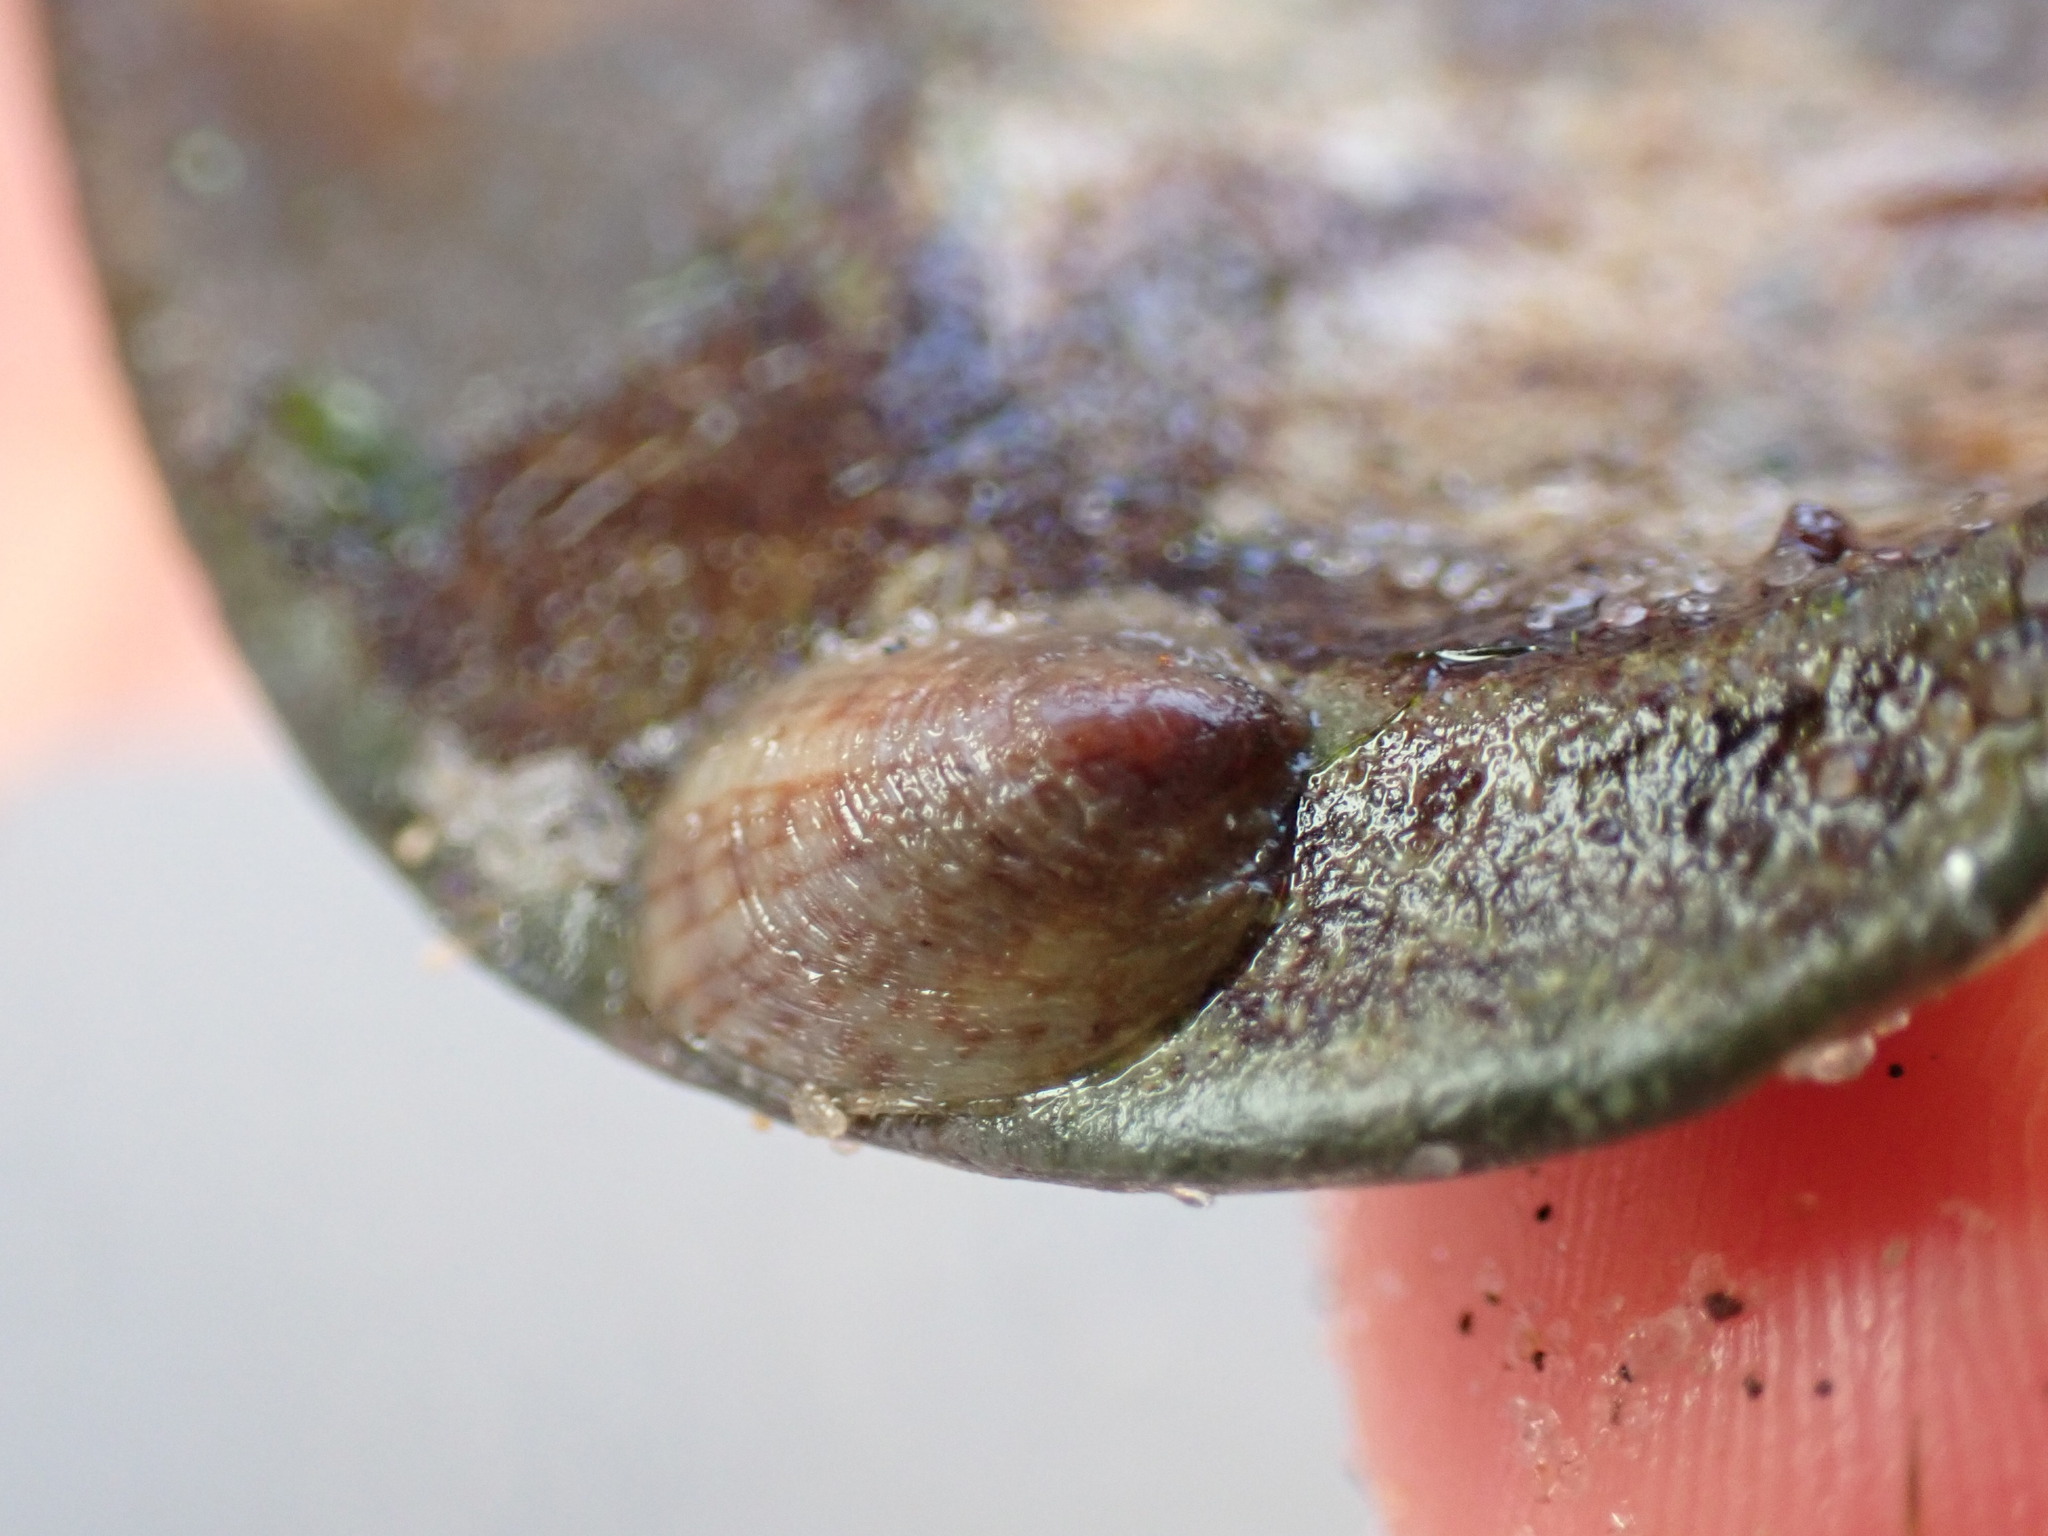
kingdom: Animalia
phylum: Mollusca
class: Gastropoda
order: Littorinimorpha
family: Calyptraeidae
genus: Crepidula
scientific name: Crepidula convexa
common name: Convex slippersnail
